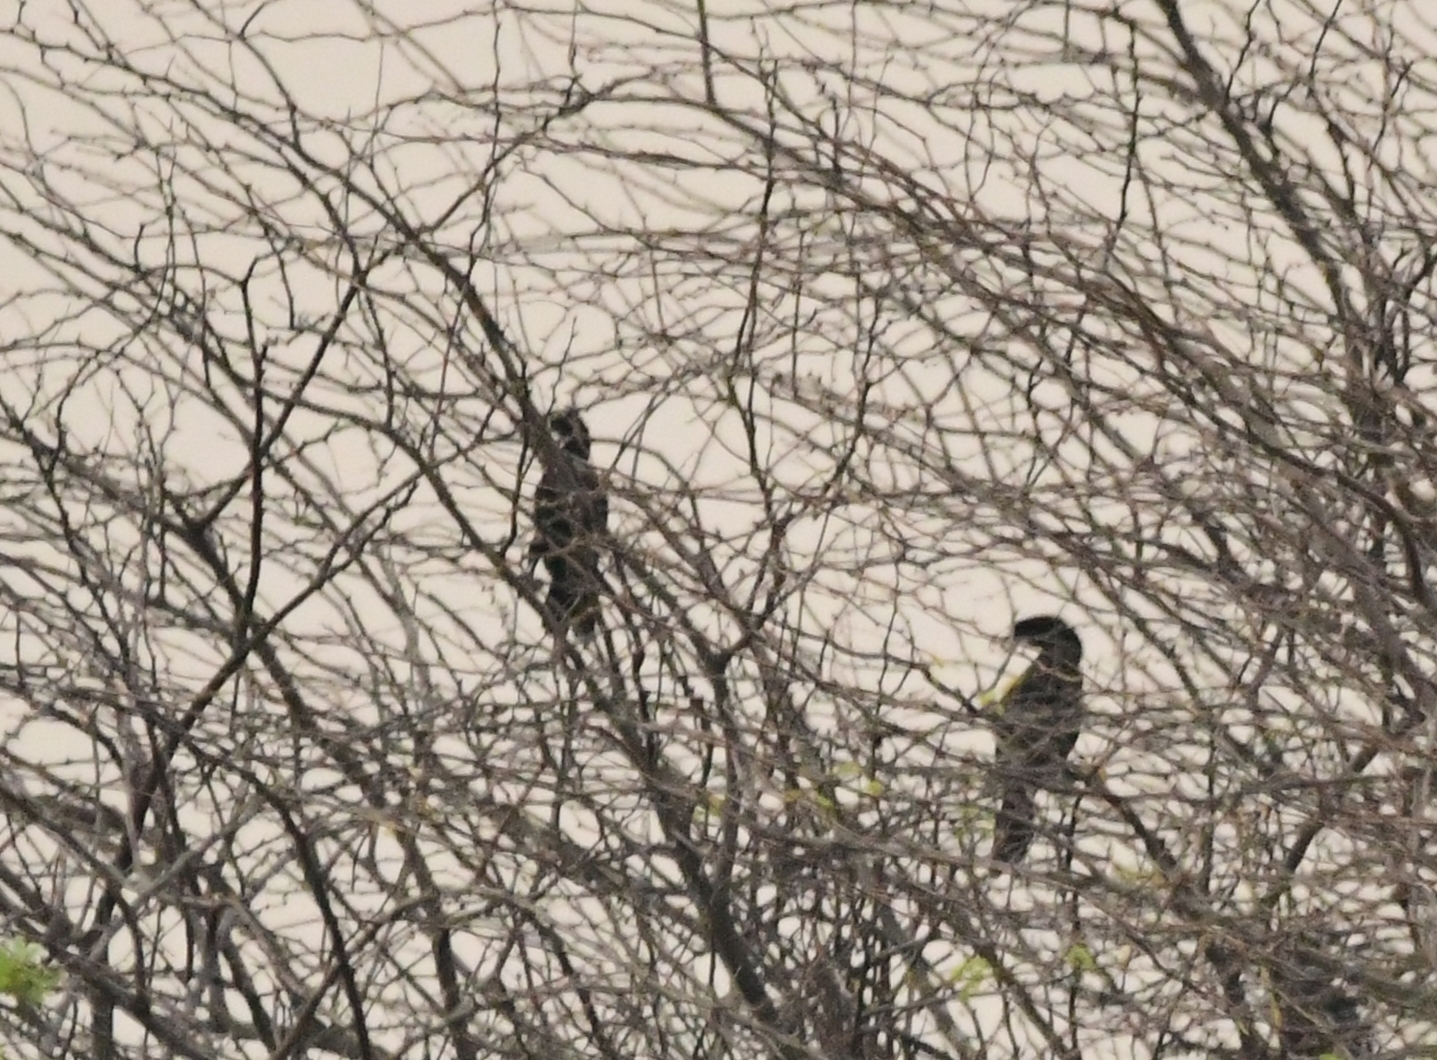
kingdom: Animalia
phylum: Chordata
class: Aves
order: Suliformes
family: Phalacrocoracidae
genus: Microcarbo
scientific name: Microcarbo niger
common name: Little cormorant
